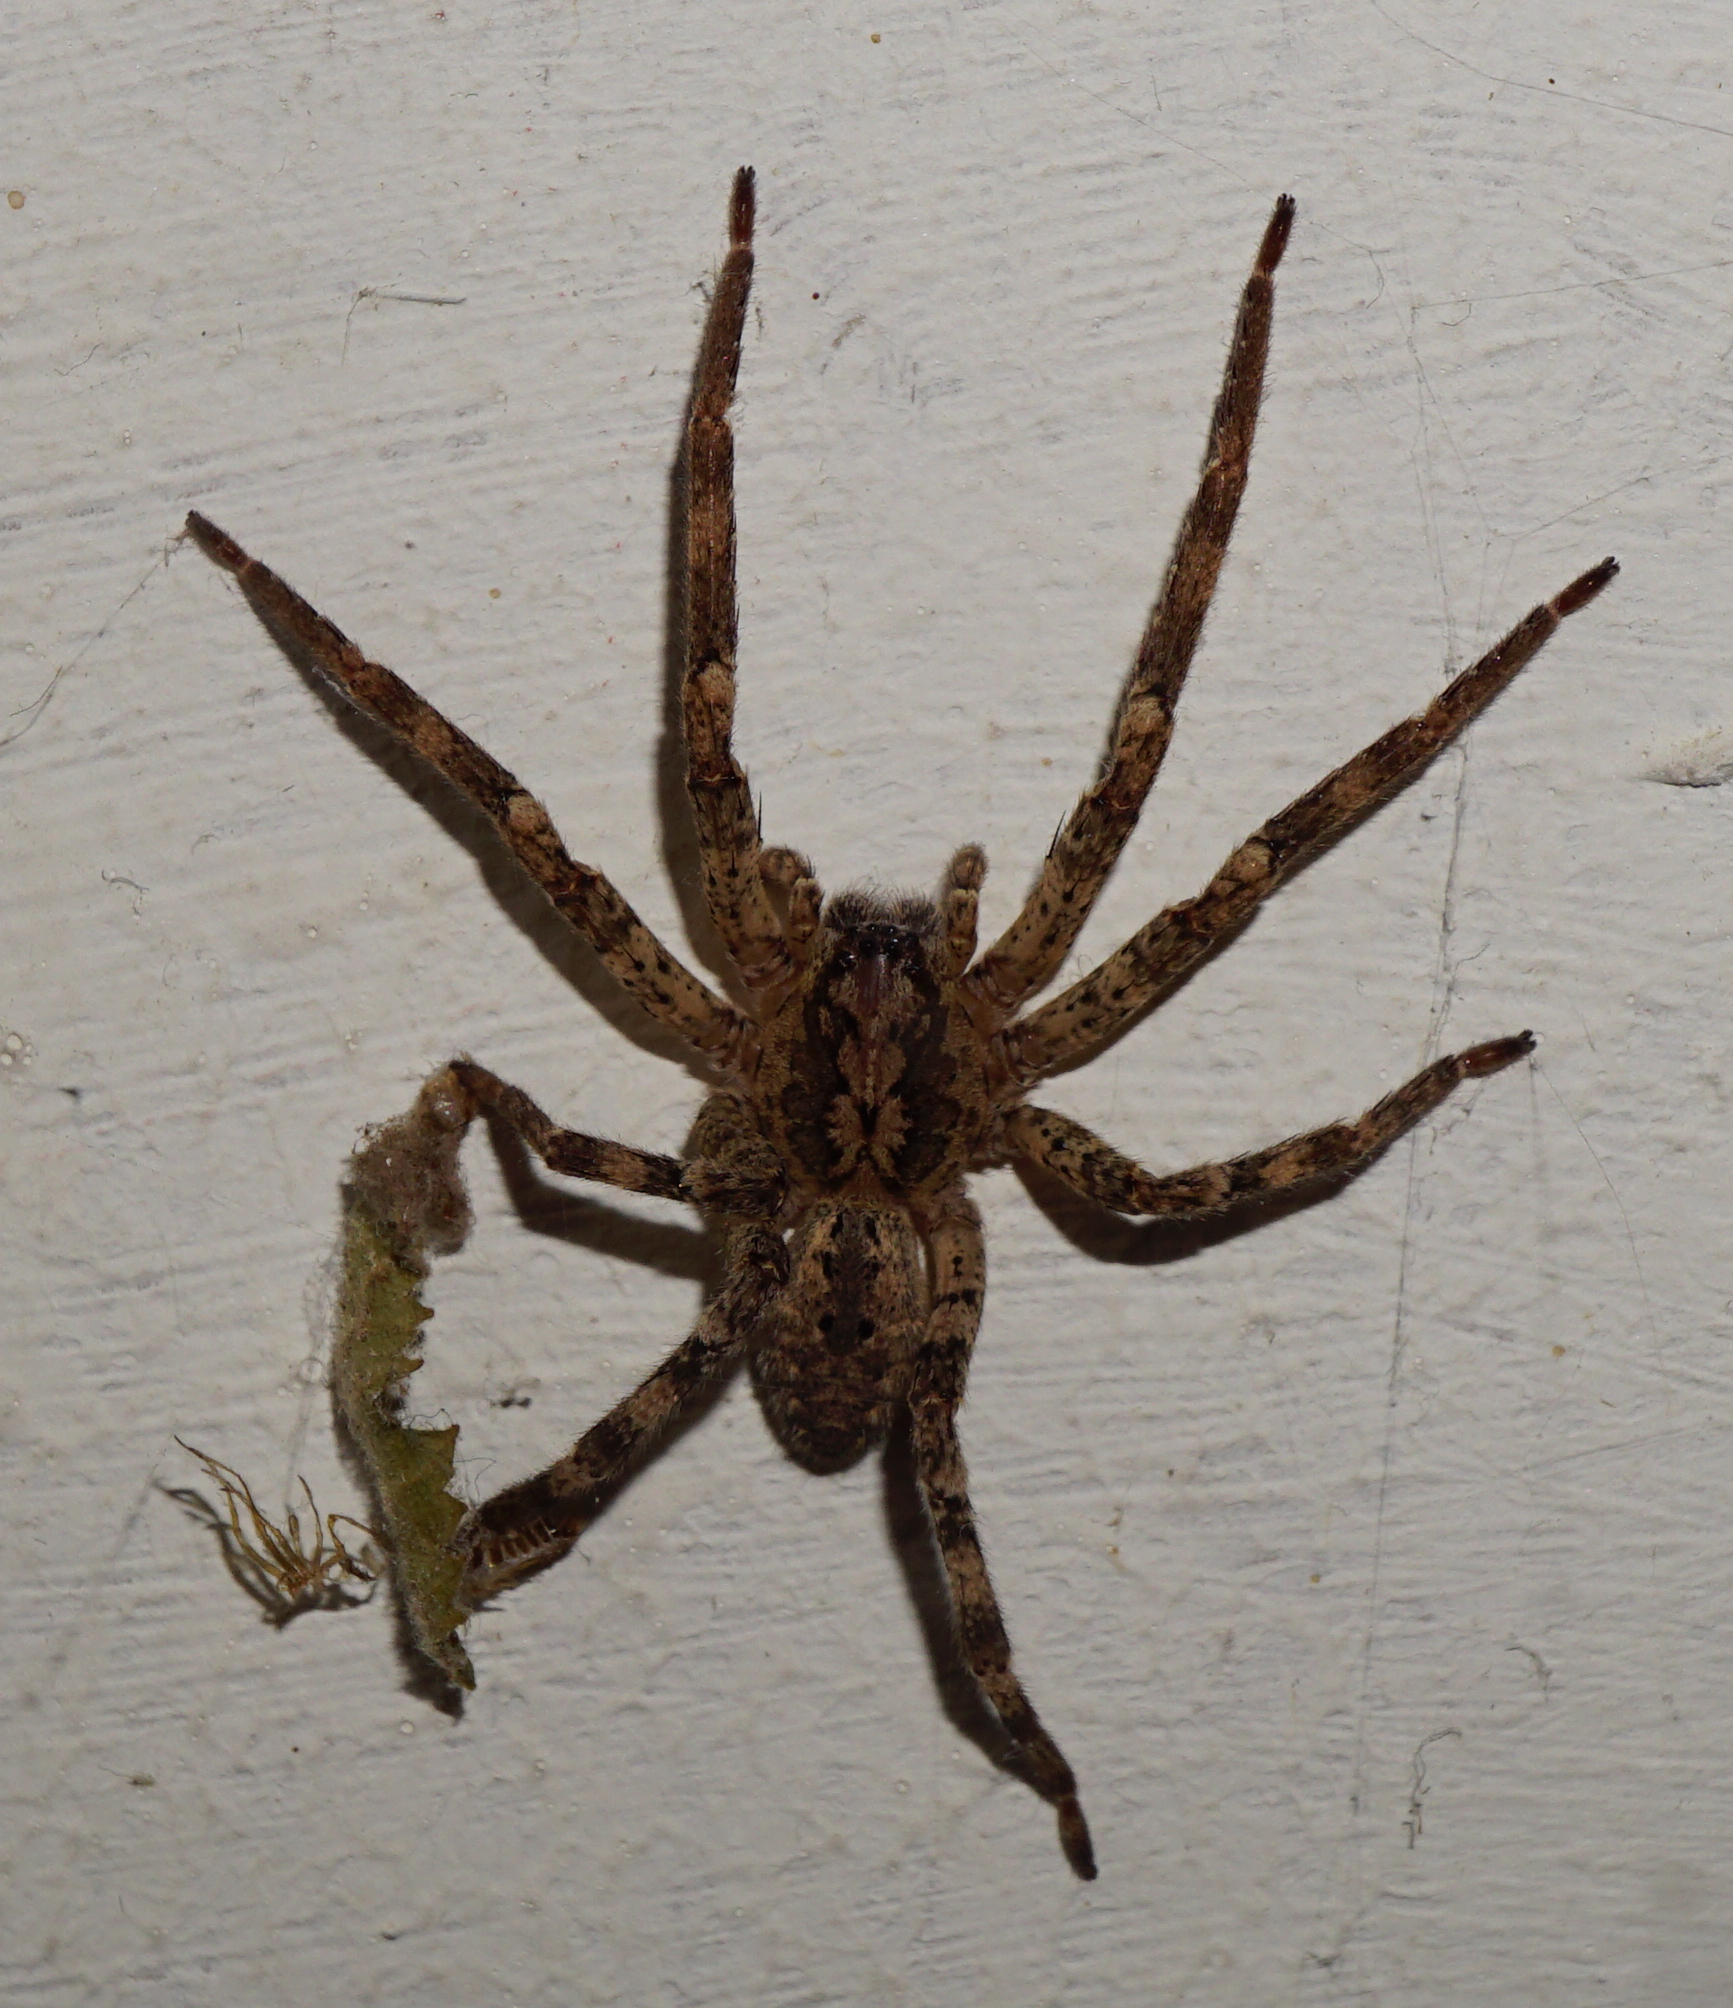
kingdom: Animalia
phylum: Arthropoda
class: Arachnida
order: Araneae
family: Zoropsidae
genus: Zoropsis
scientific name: Zoropsis spinimana
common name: Zoropsid spider
